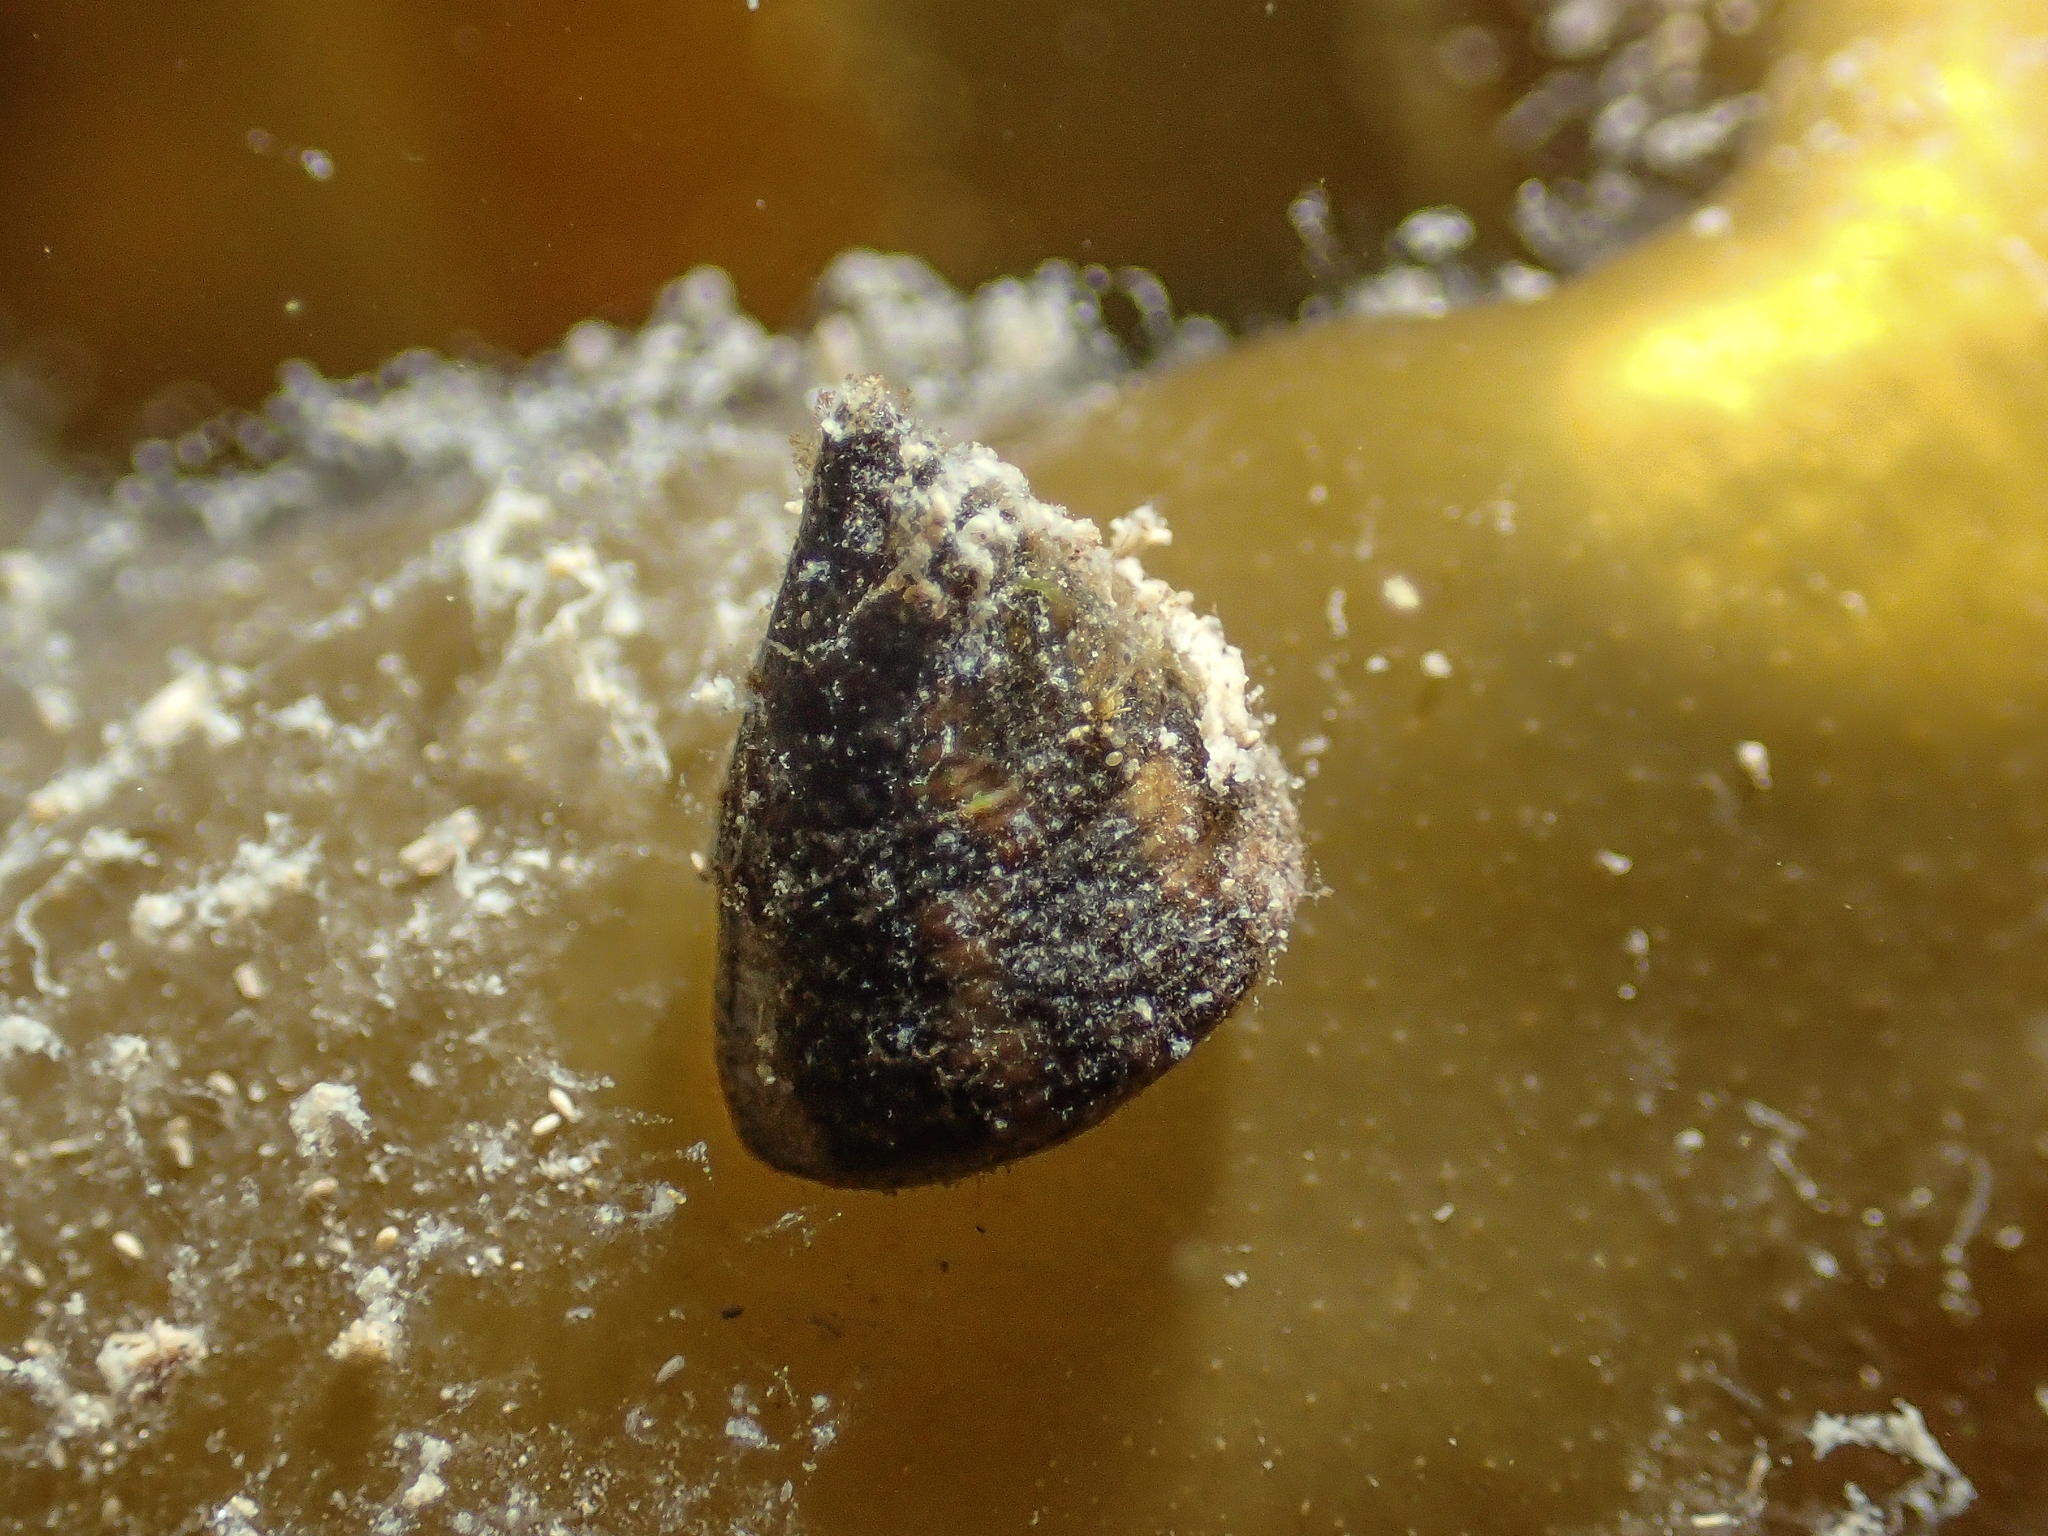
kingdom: Animalia
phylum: Mollusca
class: Gastropoda
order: Trochida
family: Trochidae
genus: Jujubinus
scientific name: Jujubinus striatus
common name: Grooved top shell
